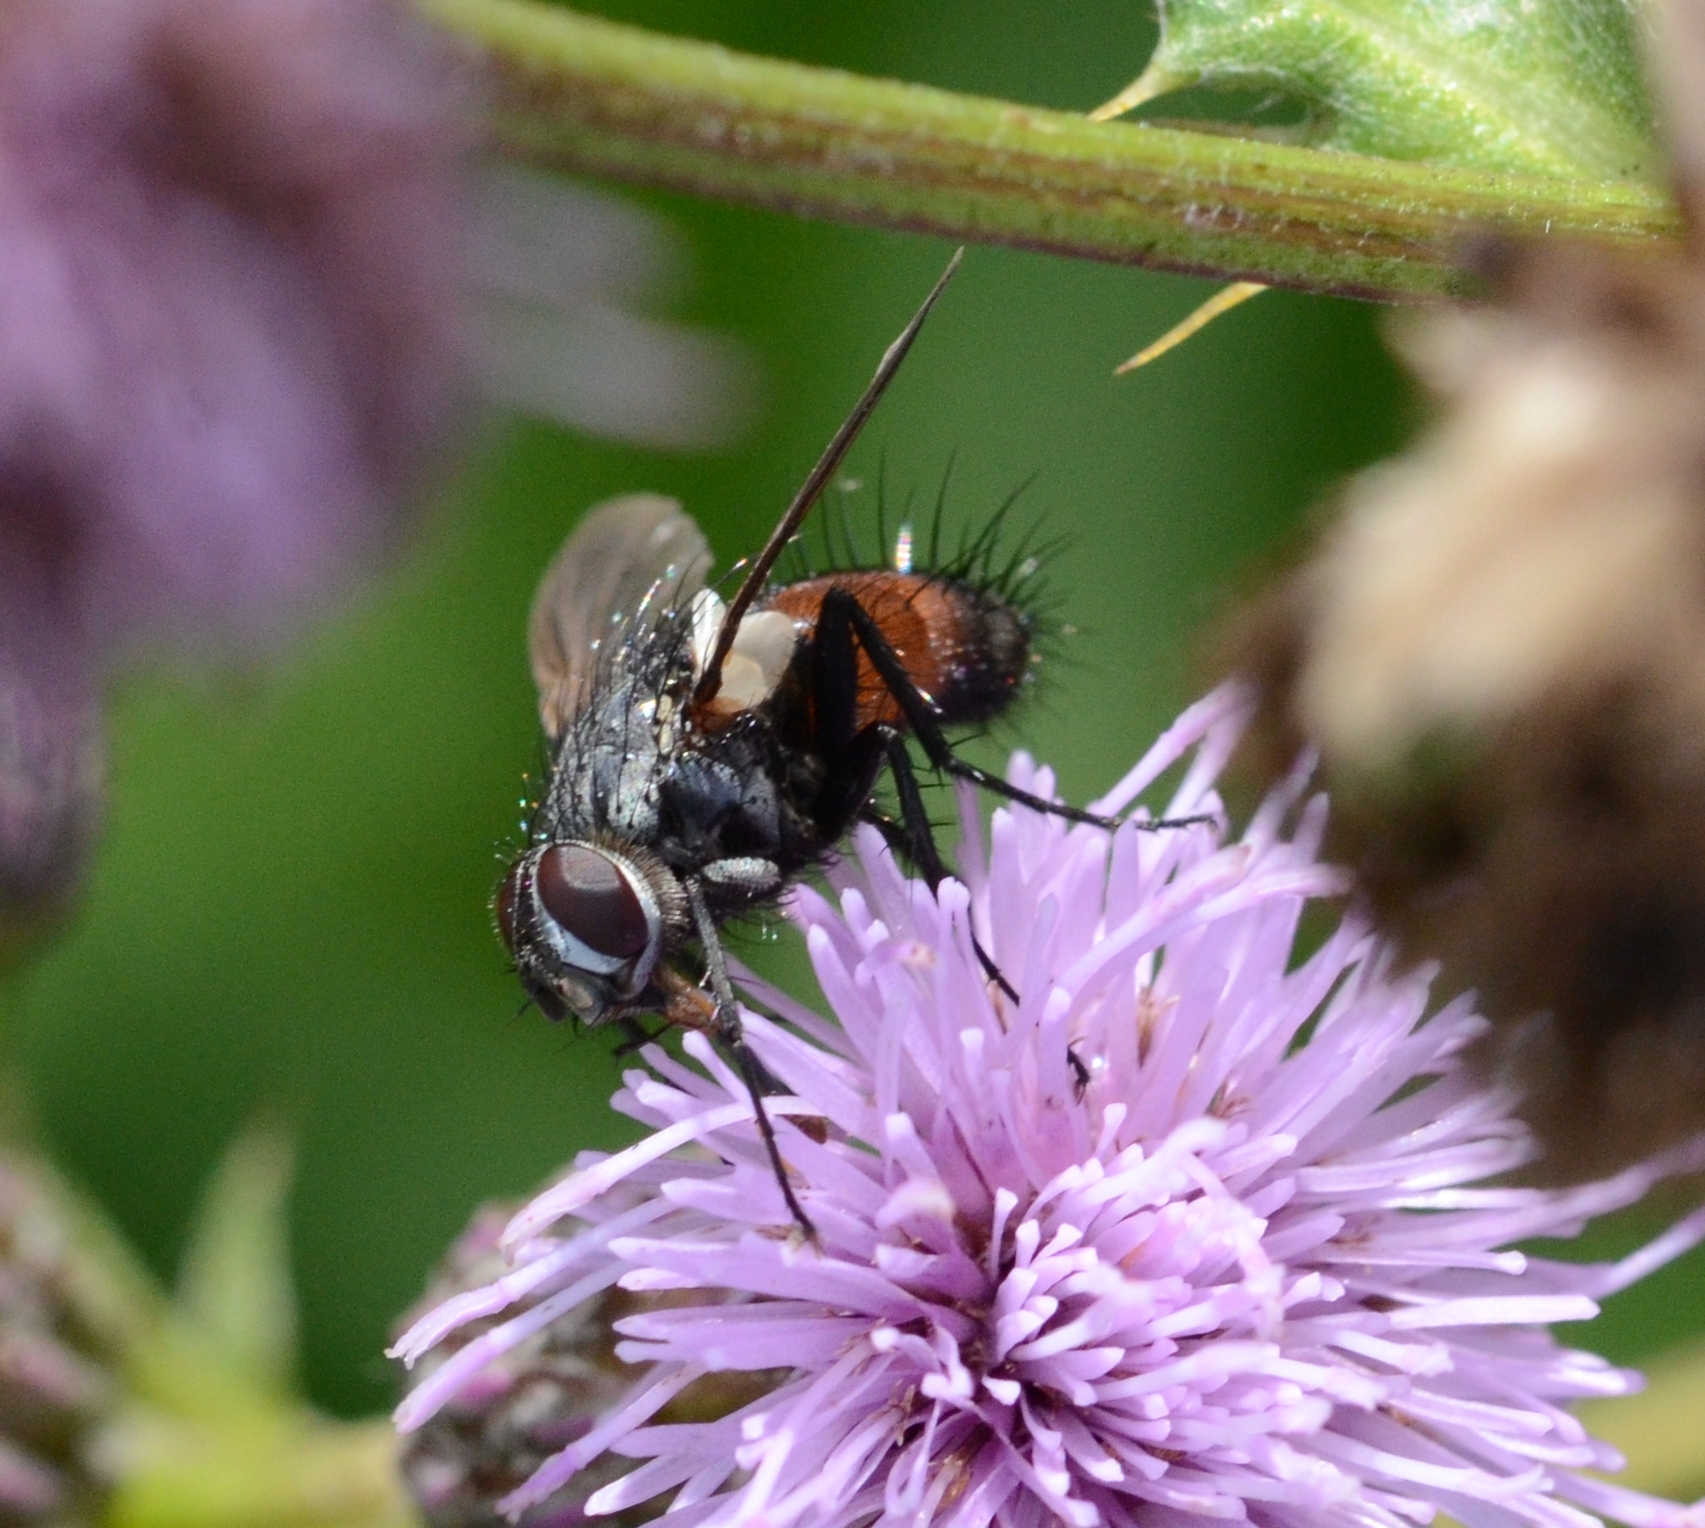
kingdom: Animalia
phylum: Arthropoda
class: Insecta
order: Diptera
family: Tachinidae
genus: Eriothrix
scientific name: Eriothrix rufomaculatus
